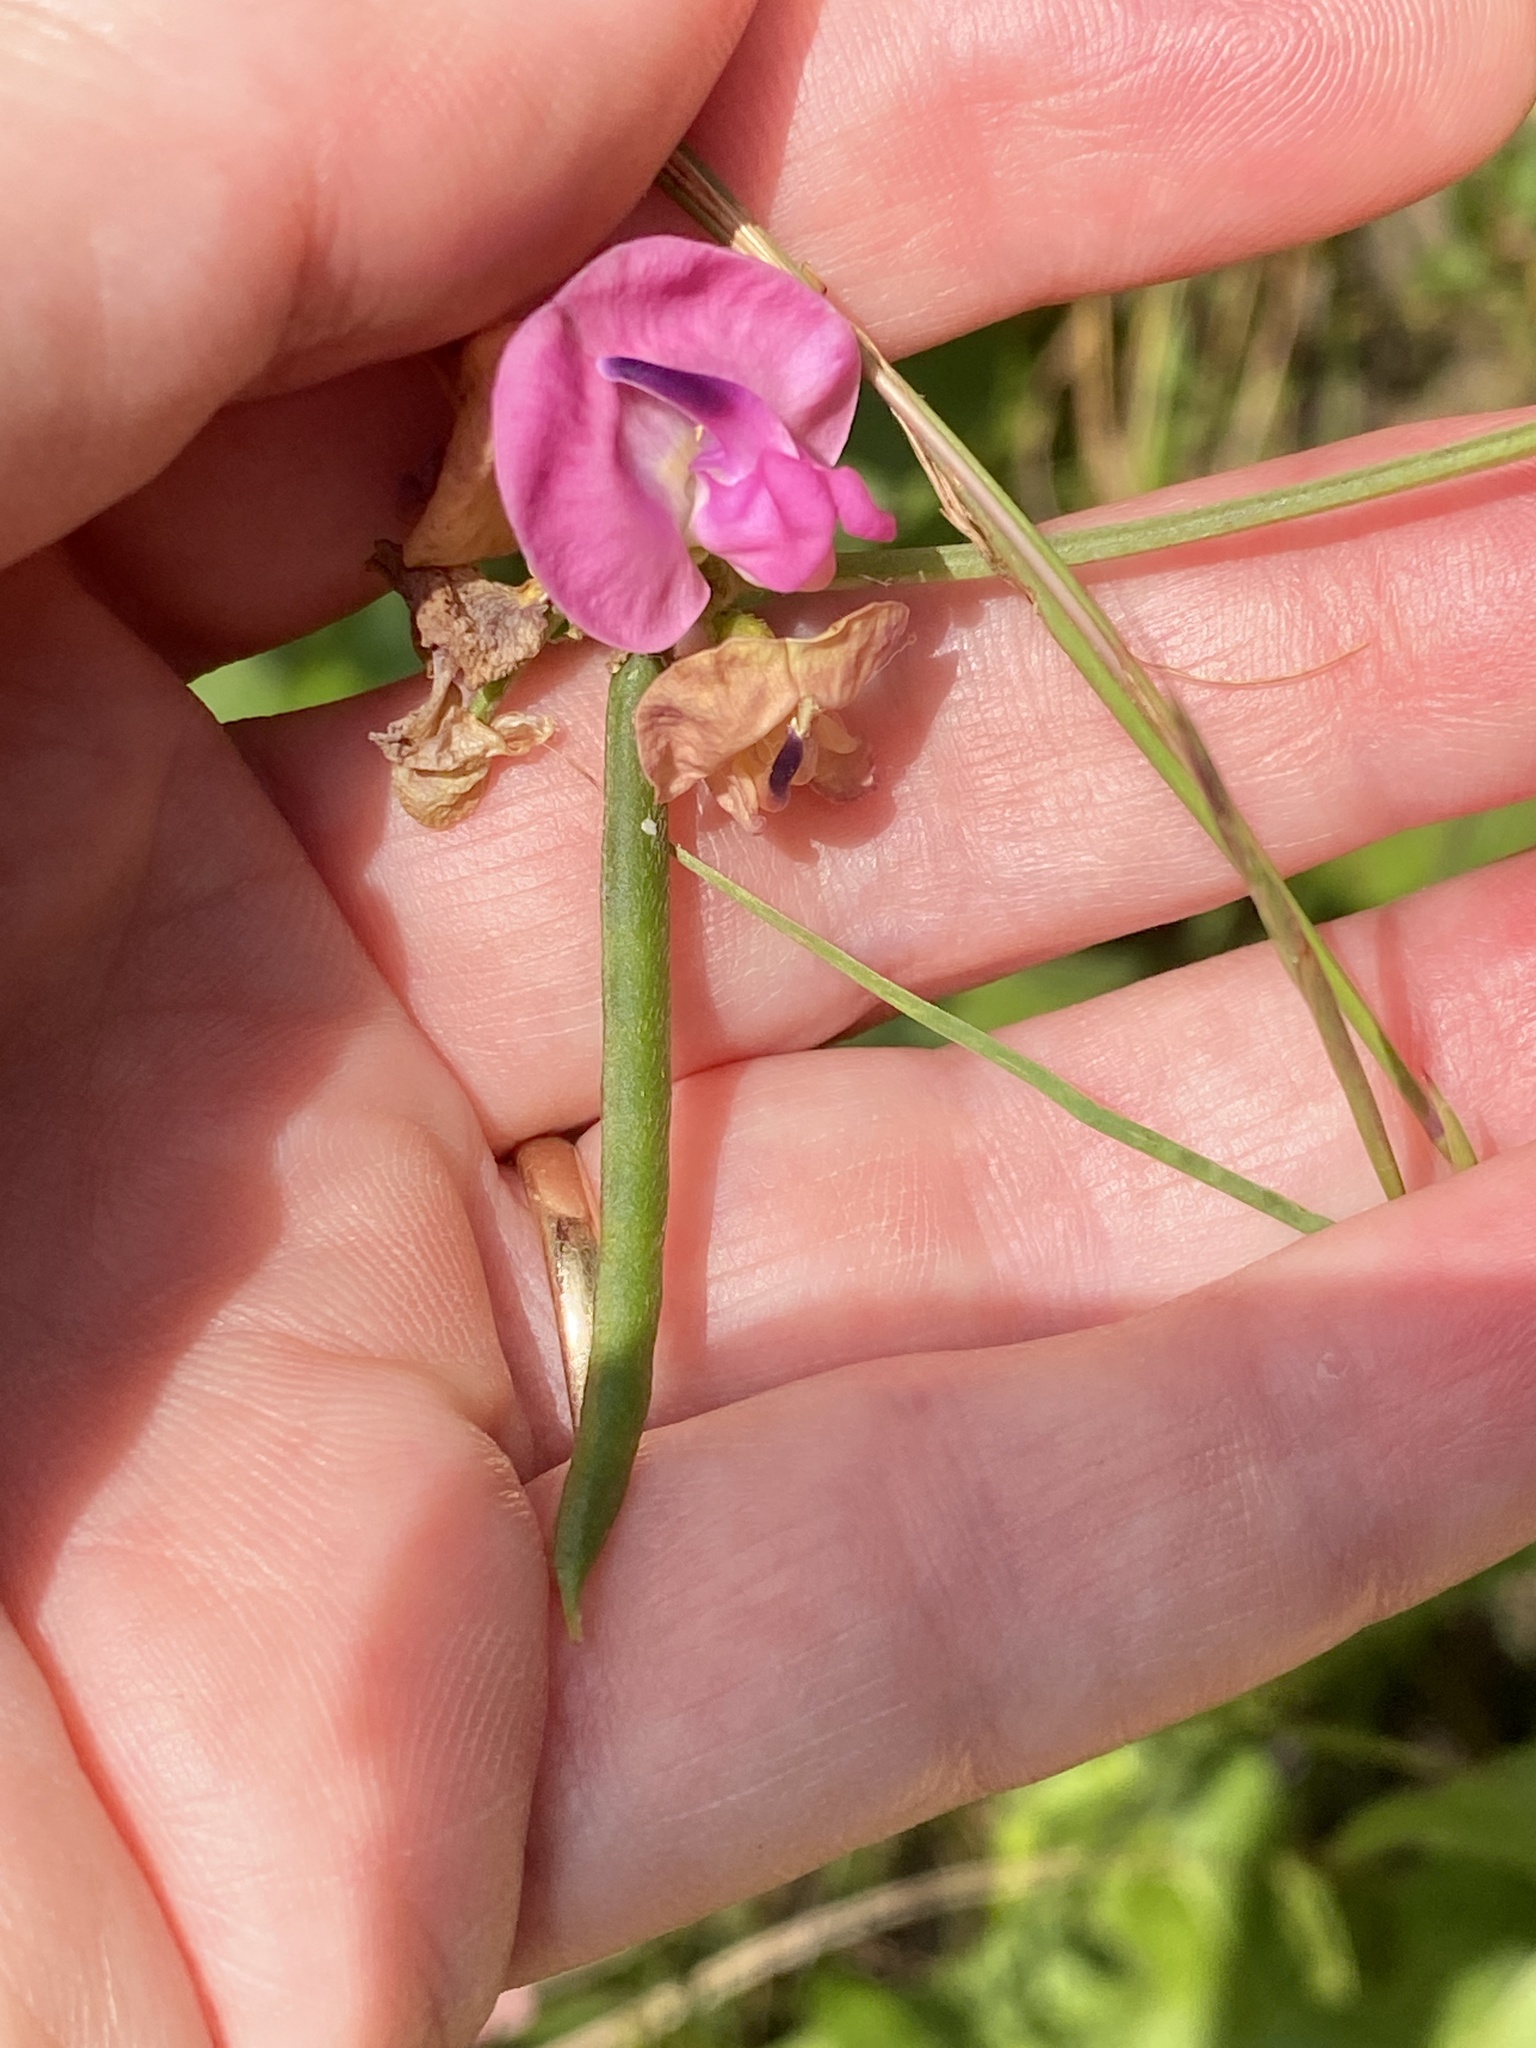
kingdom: Plantae
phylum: Tracheophyta
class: Magnoliopsida
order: Fabales
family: Fabaceae
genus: Strophostyles
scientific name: Strophostyles umbellata
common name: Perennial wild bean
